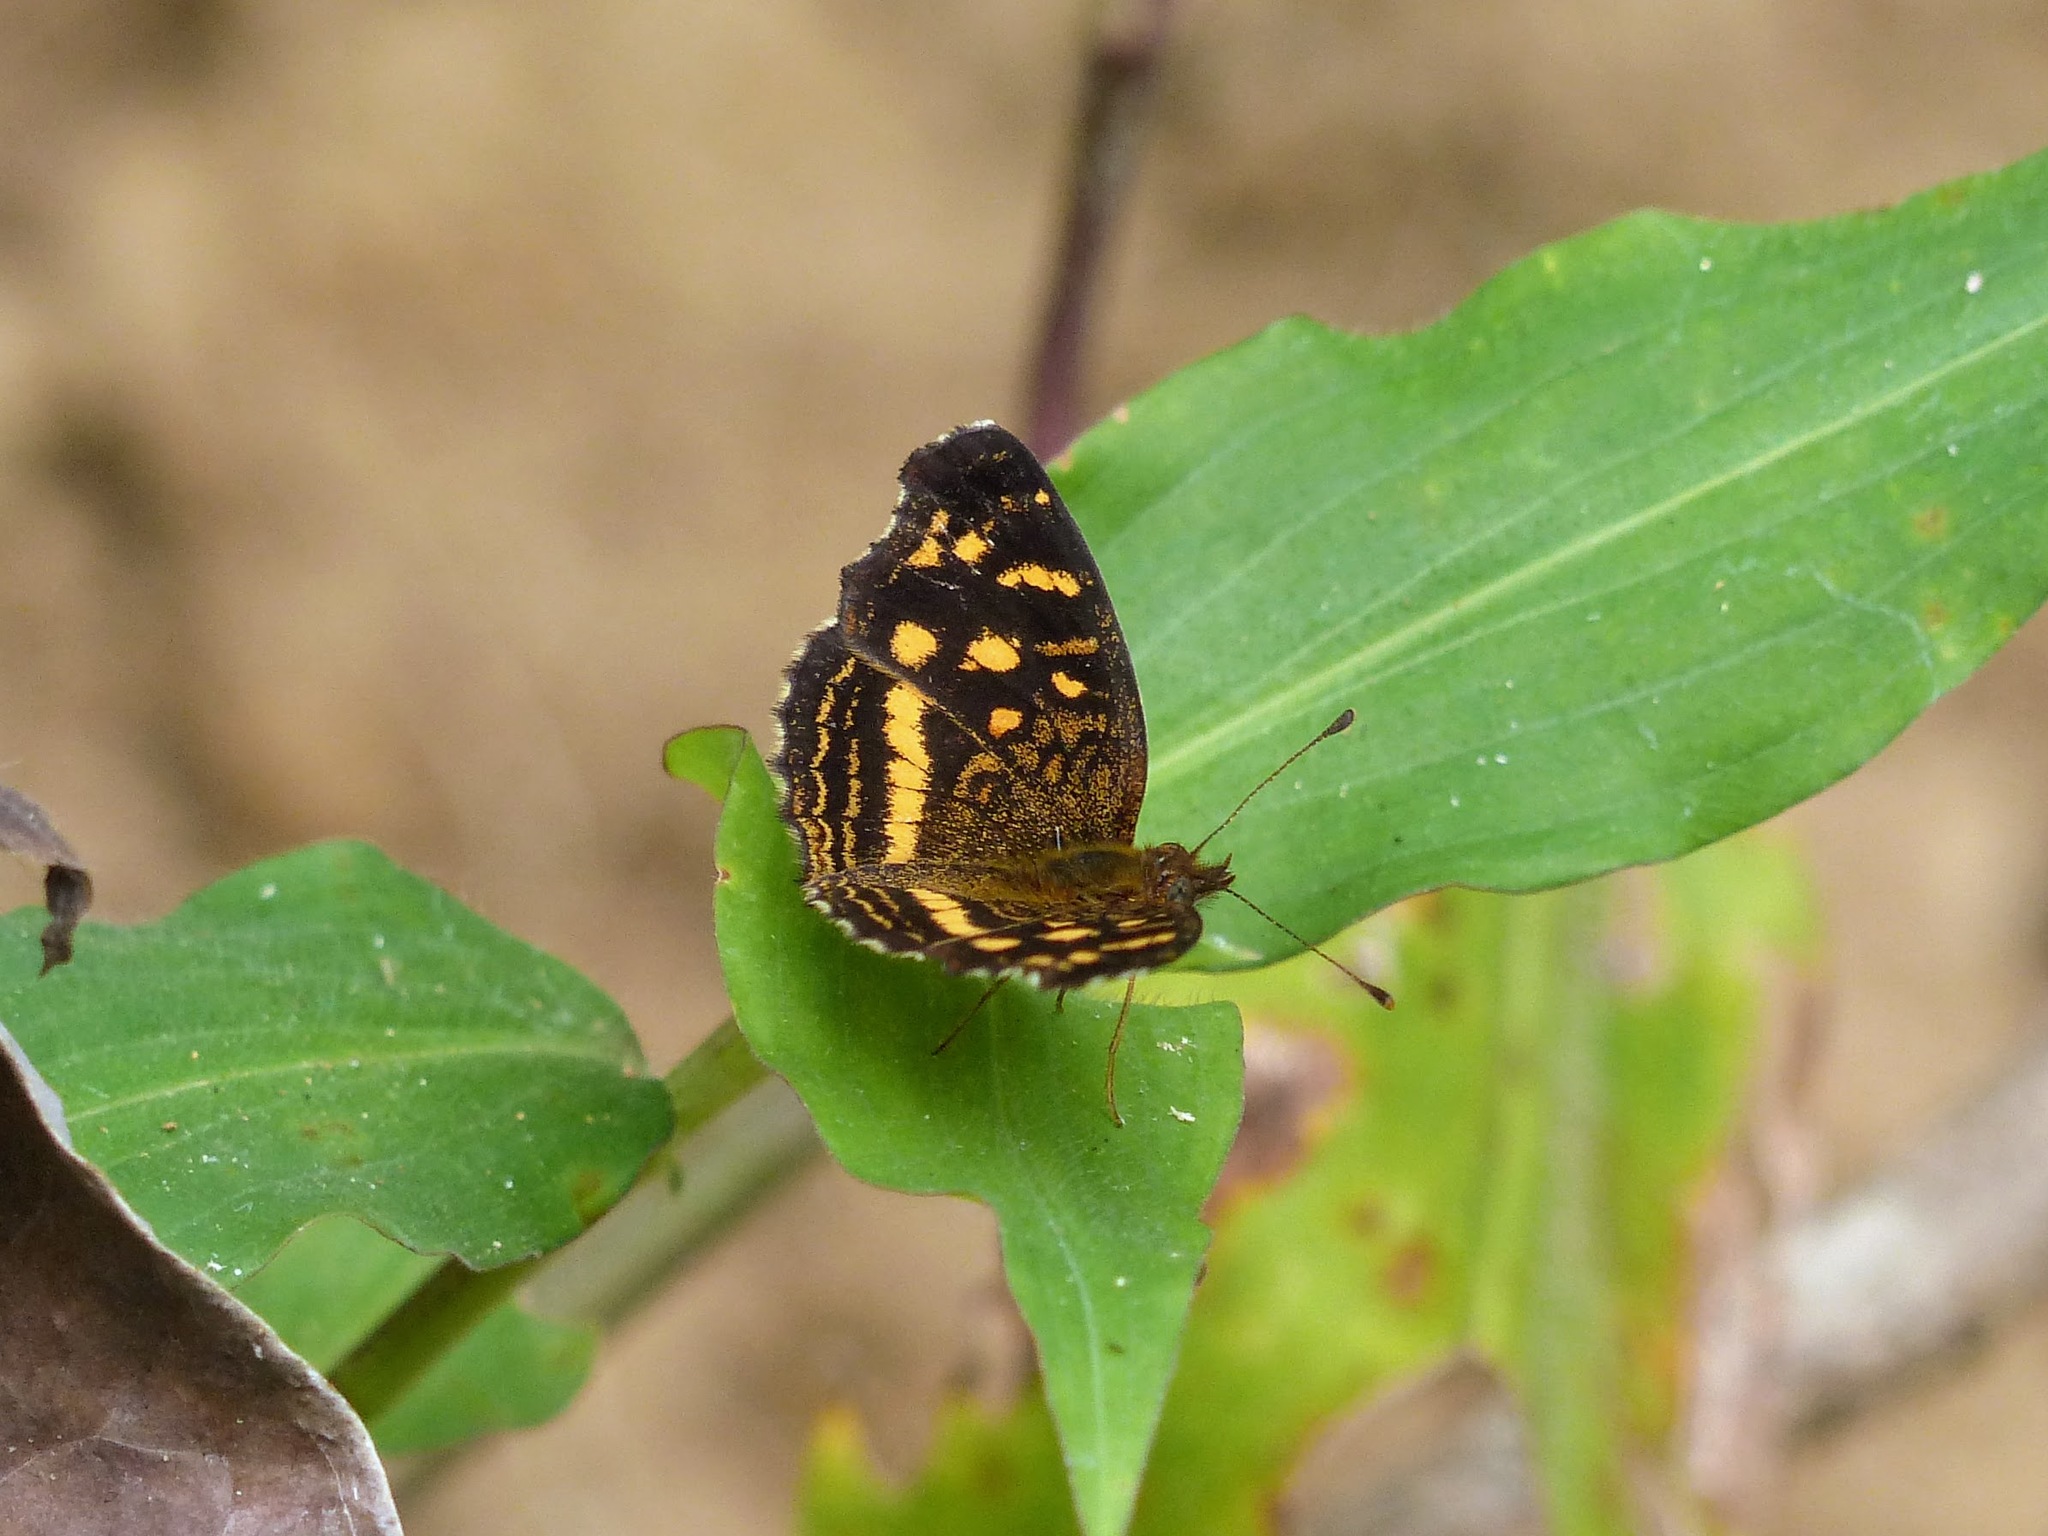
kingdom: Animalia
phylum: Arthropoda
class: Insecta
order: Lepidoptera
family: Nymphalidae
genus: Anthanassa
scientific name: Anthanassa drusilla
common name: Orange-patched crescent
